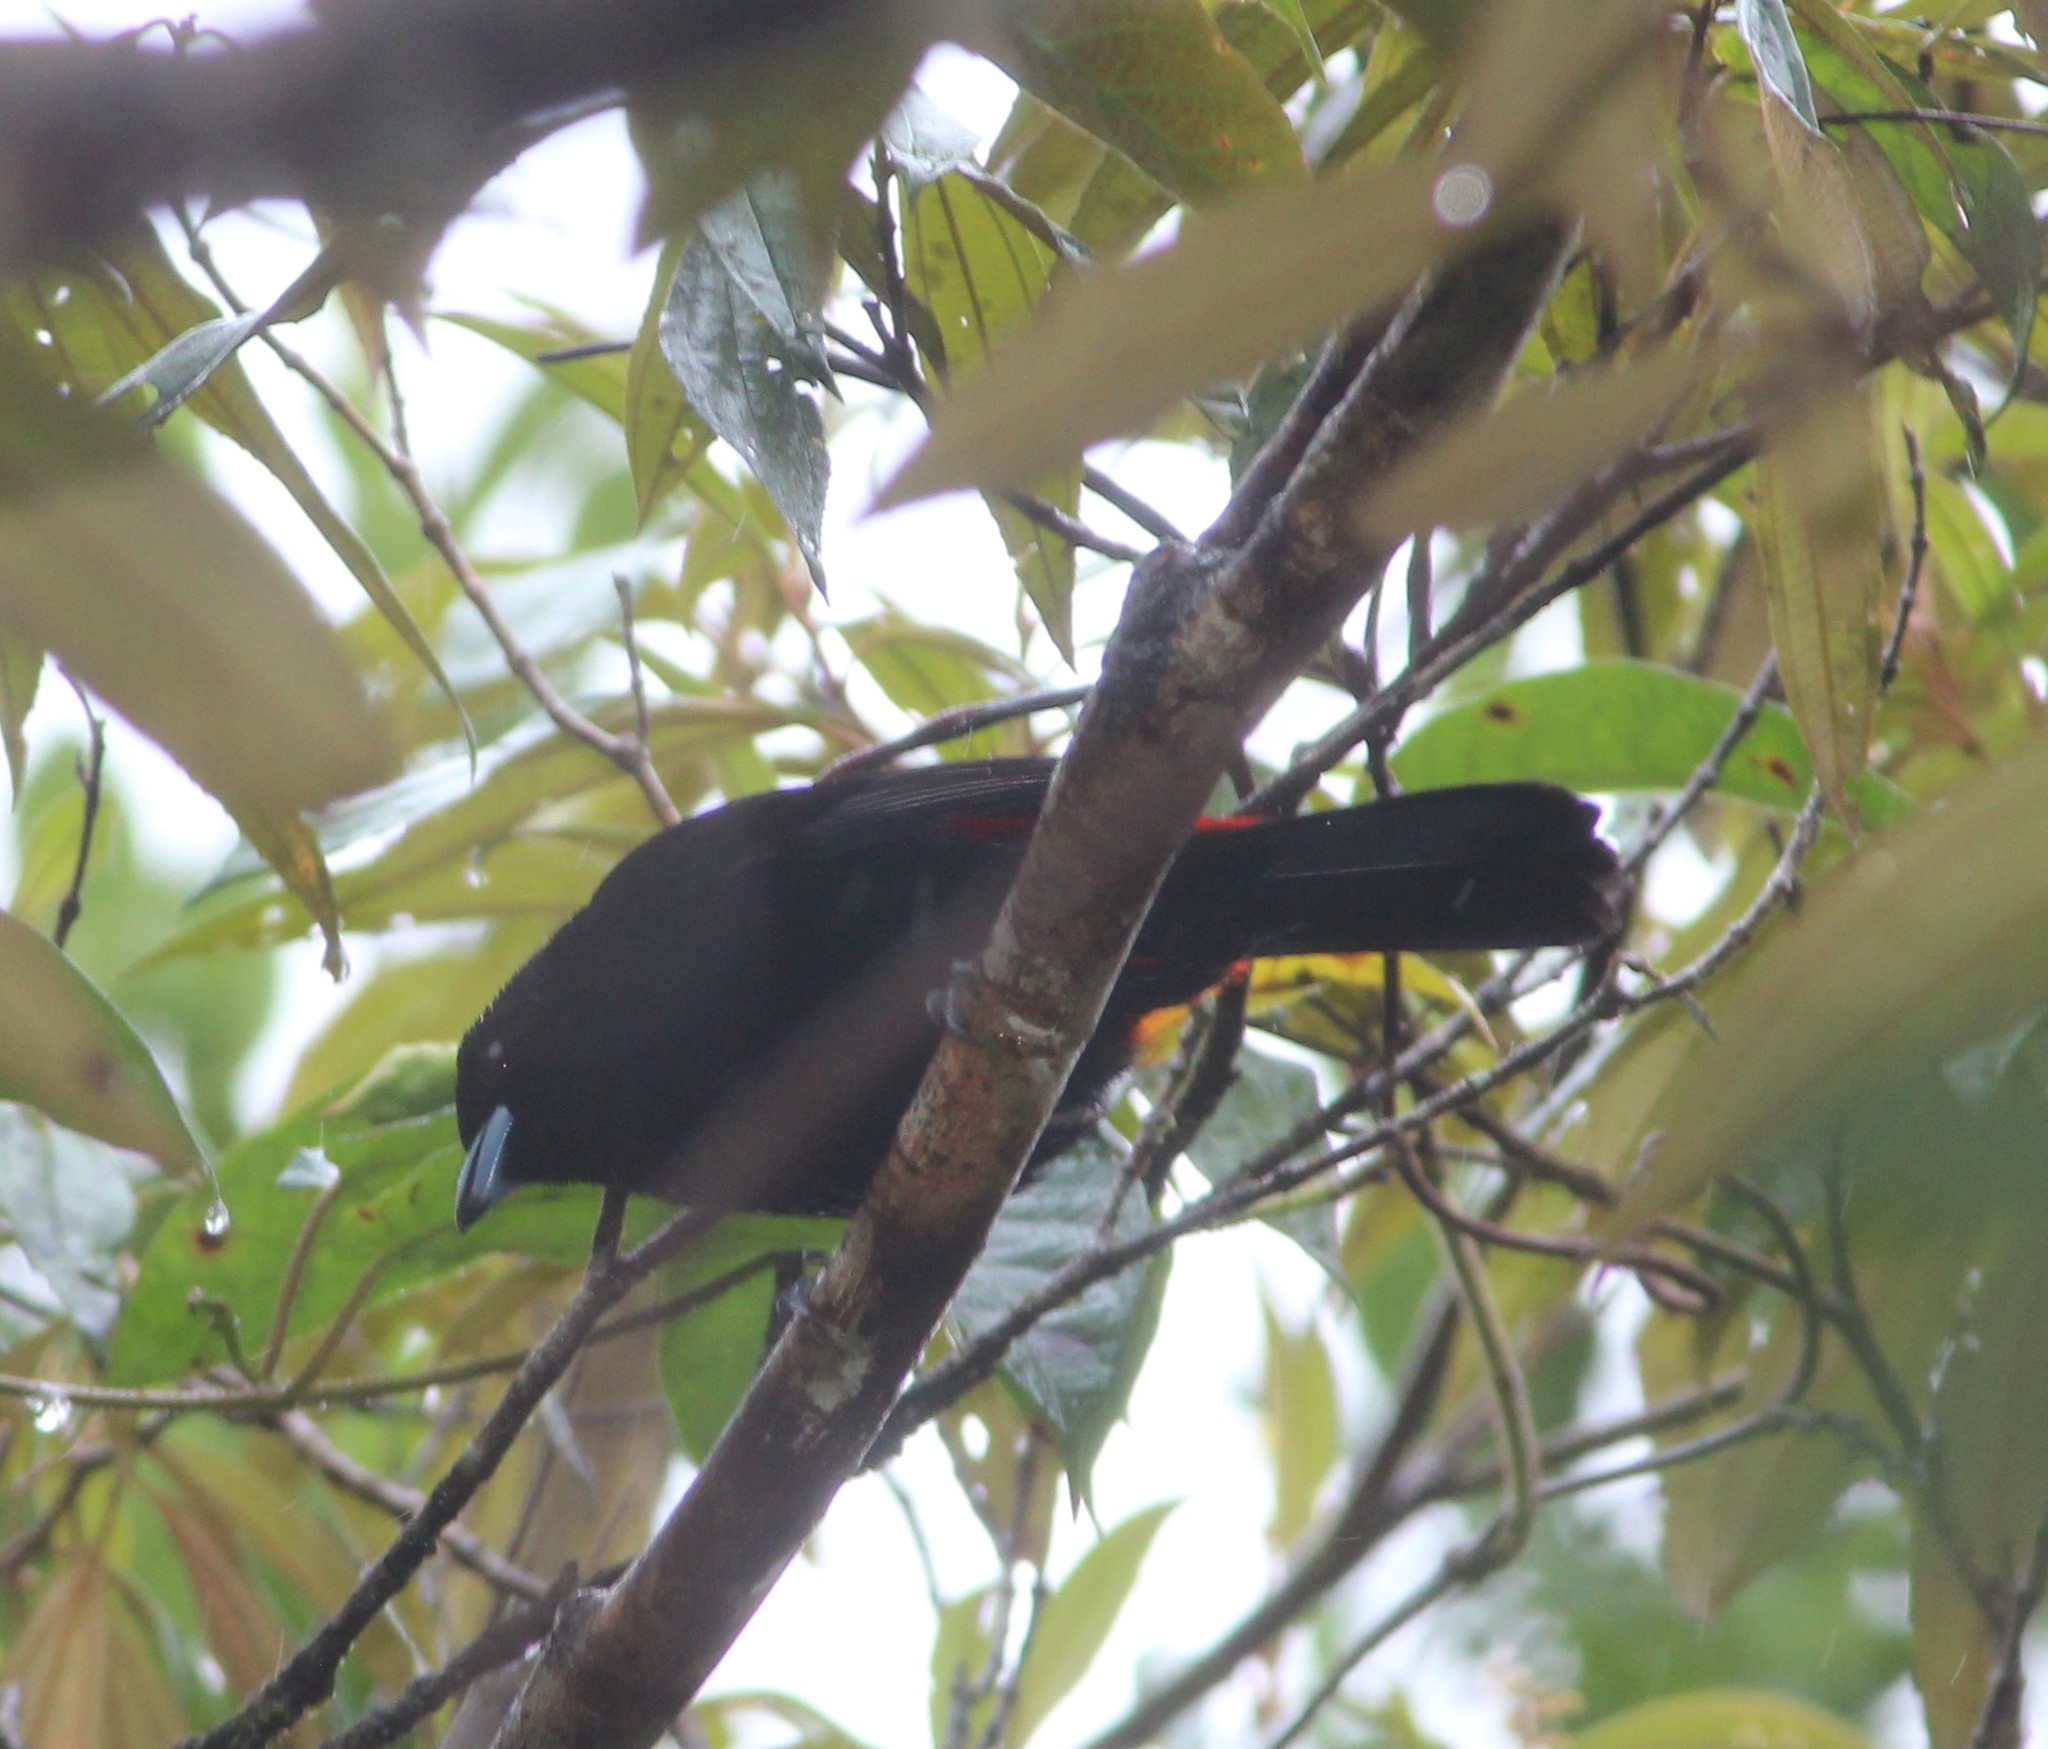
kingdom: Animalia
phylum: Chordata
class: Aves
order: Passeriformes
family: Thraupidae
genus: Ramphocelus
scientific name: Ramphocelus passerinii
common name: Passerini's tanager
